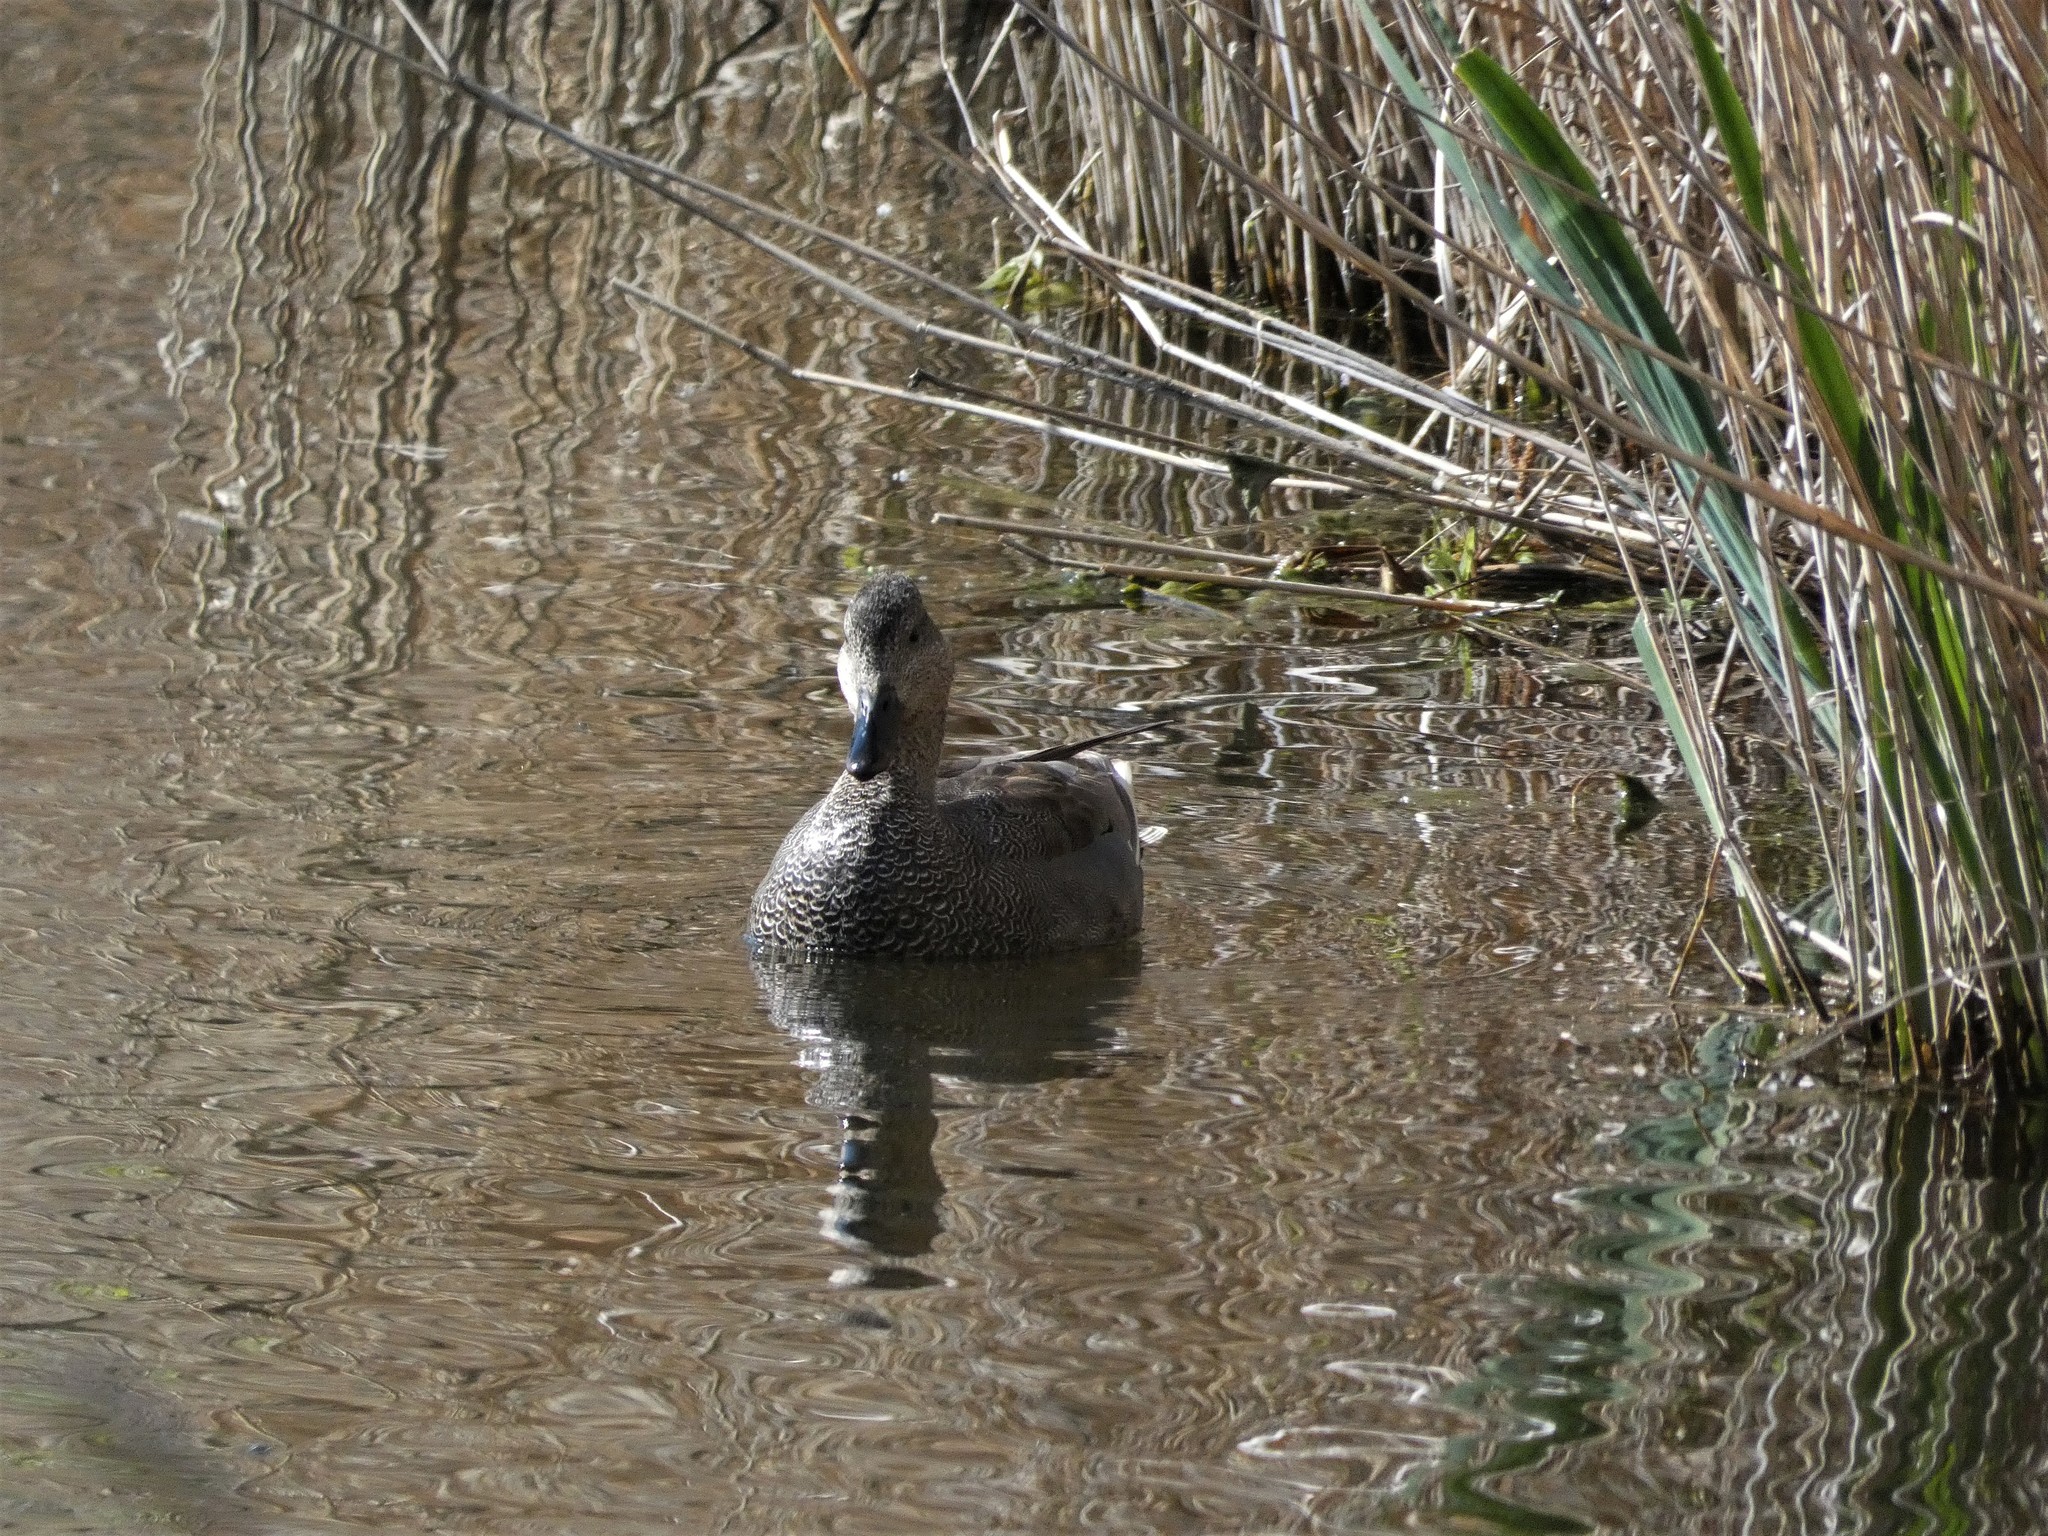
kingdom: Animalia
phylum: Chordata
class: Aves
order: Anseriformes
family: Anatidae
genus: Mareca
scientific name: Mareca strepera
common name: Gadwall
